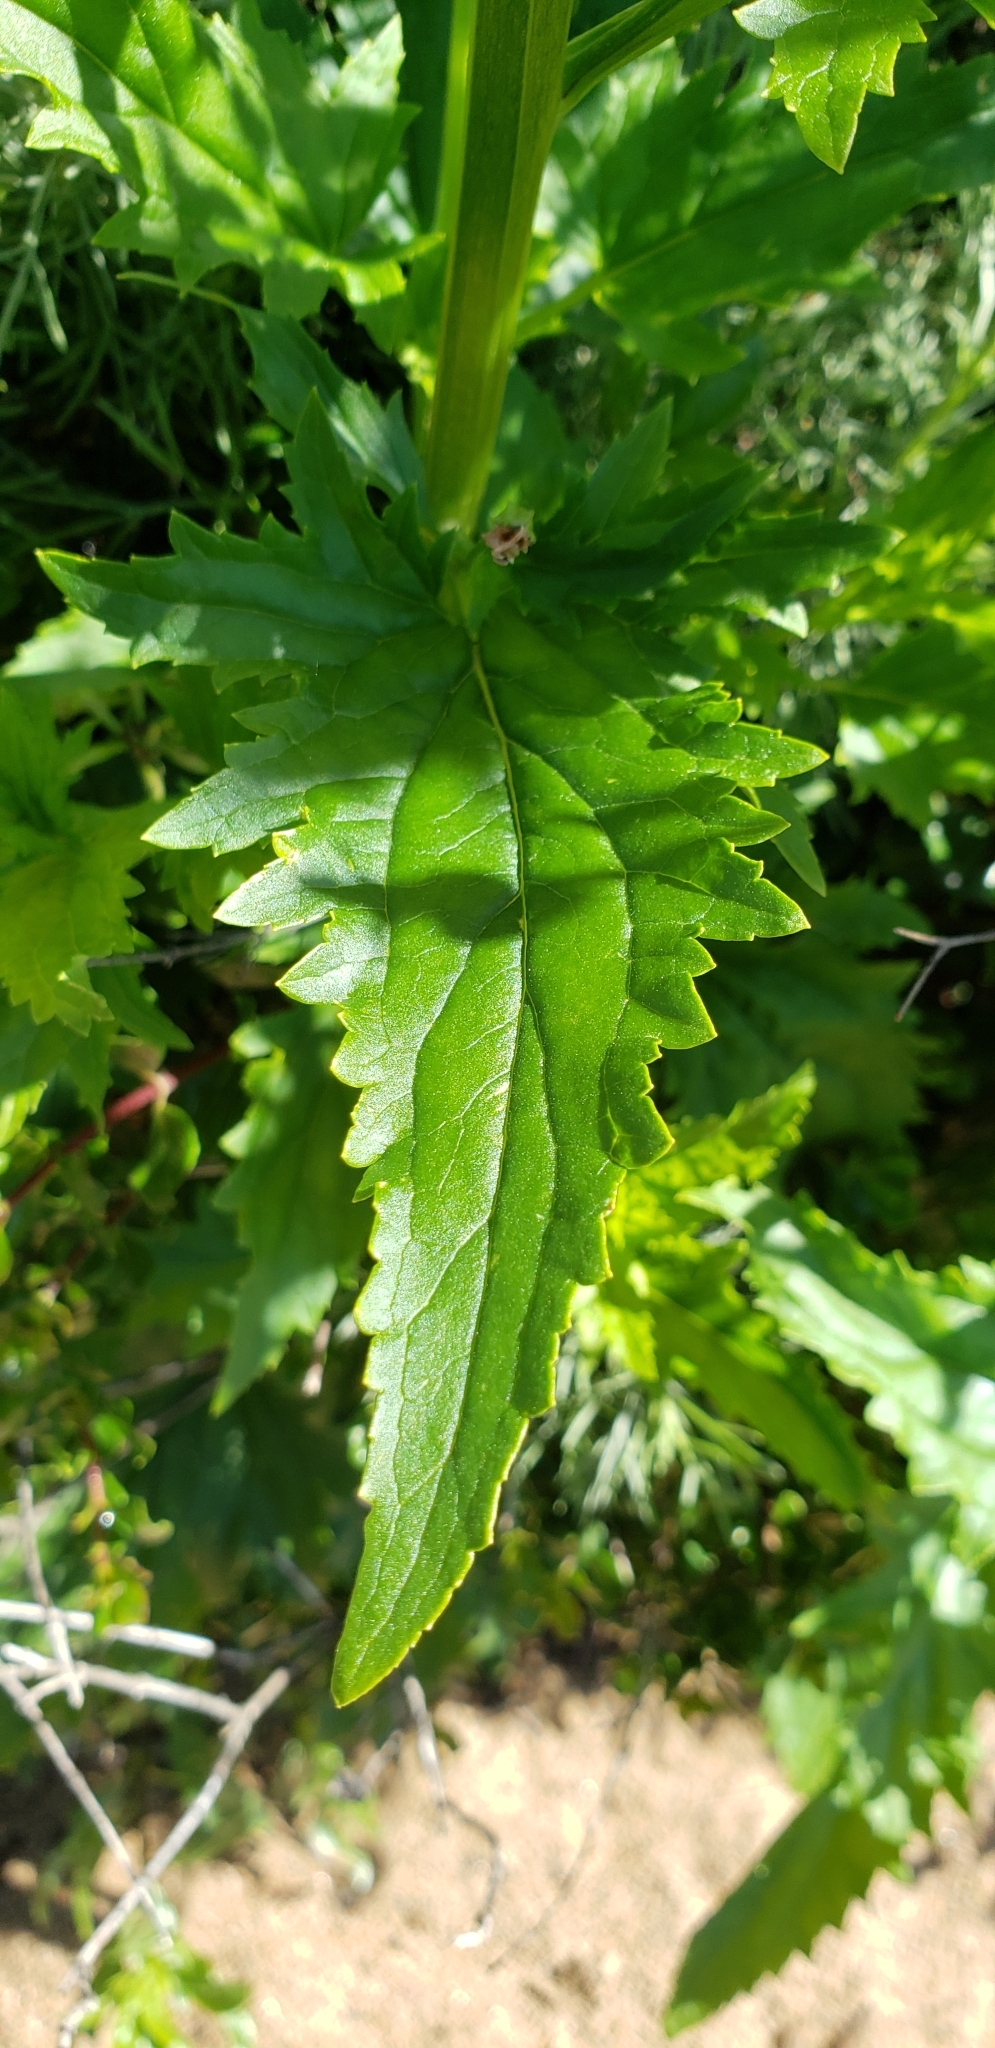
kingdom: Plantae
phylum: Tracheophyta
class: Magnoliopsida
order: Lamiales
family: Scrophulariaceae
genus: Scrophularia
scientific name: Scrophularia californica
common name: California figwort
